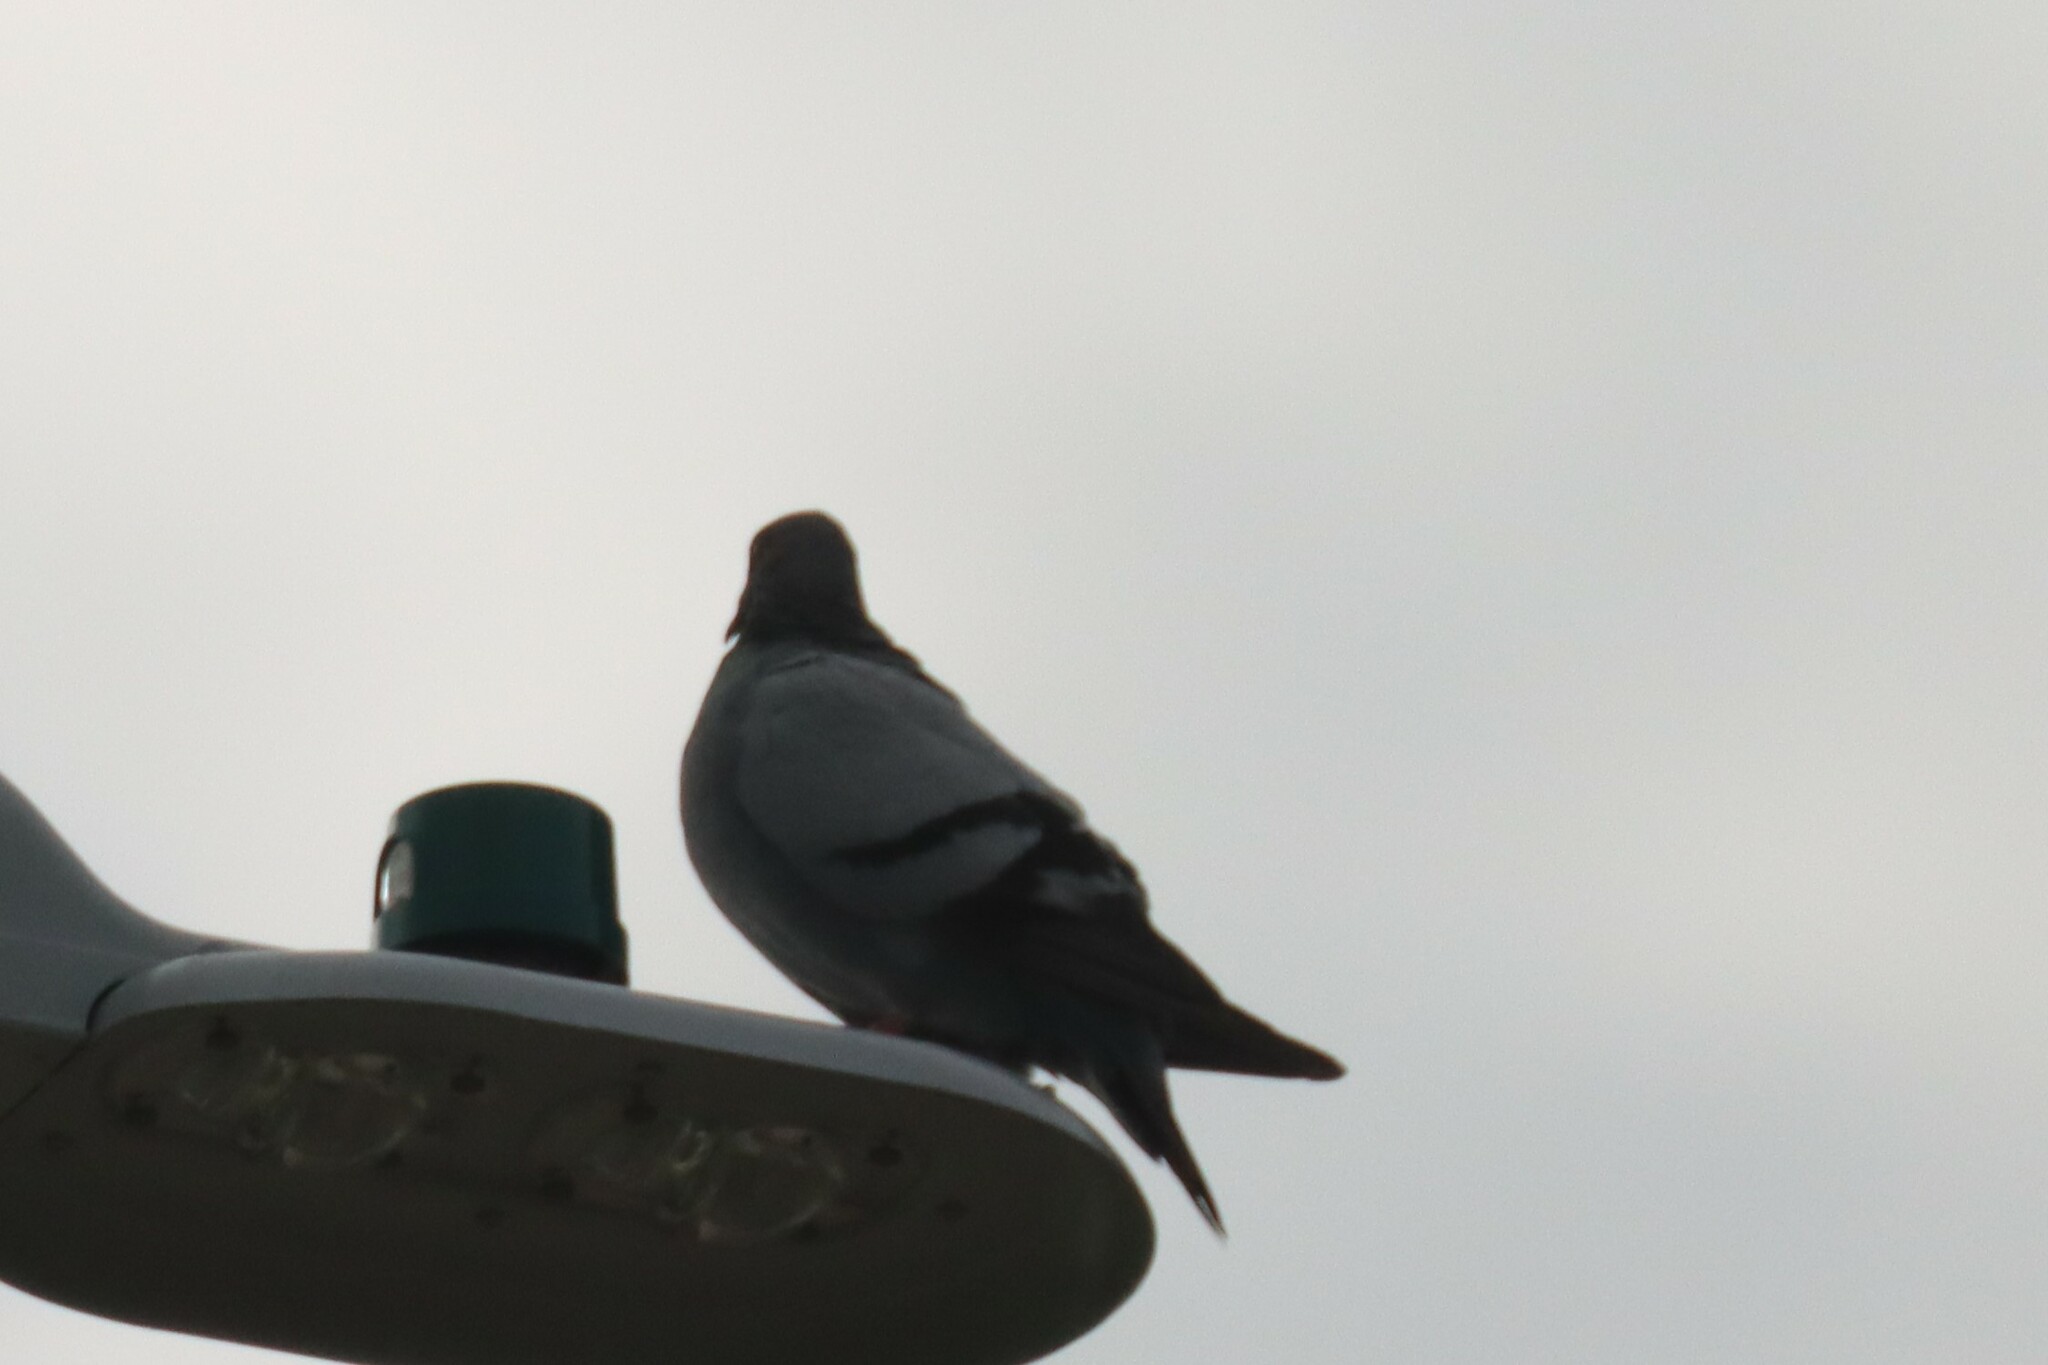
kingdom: Animalia
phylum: Chordata
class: Aves
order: Columbiformes
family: Columbidae
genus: Columba
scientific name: Columba livia
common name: Rock pigeon
